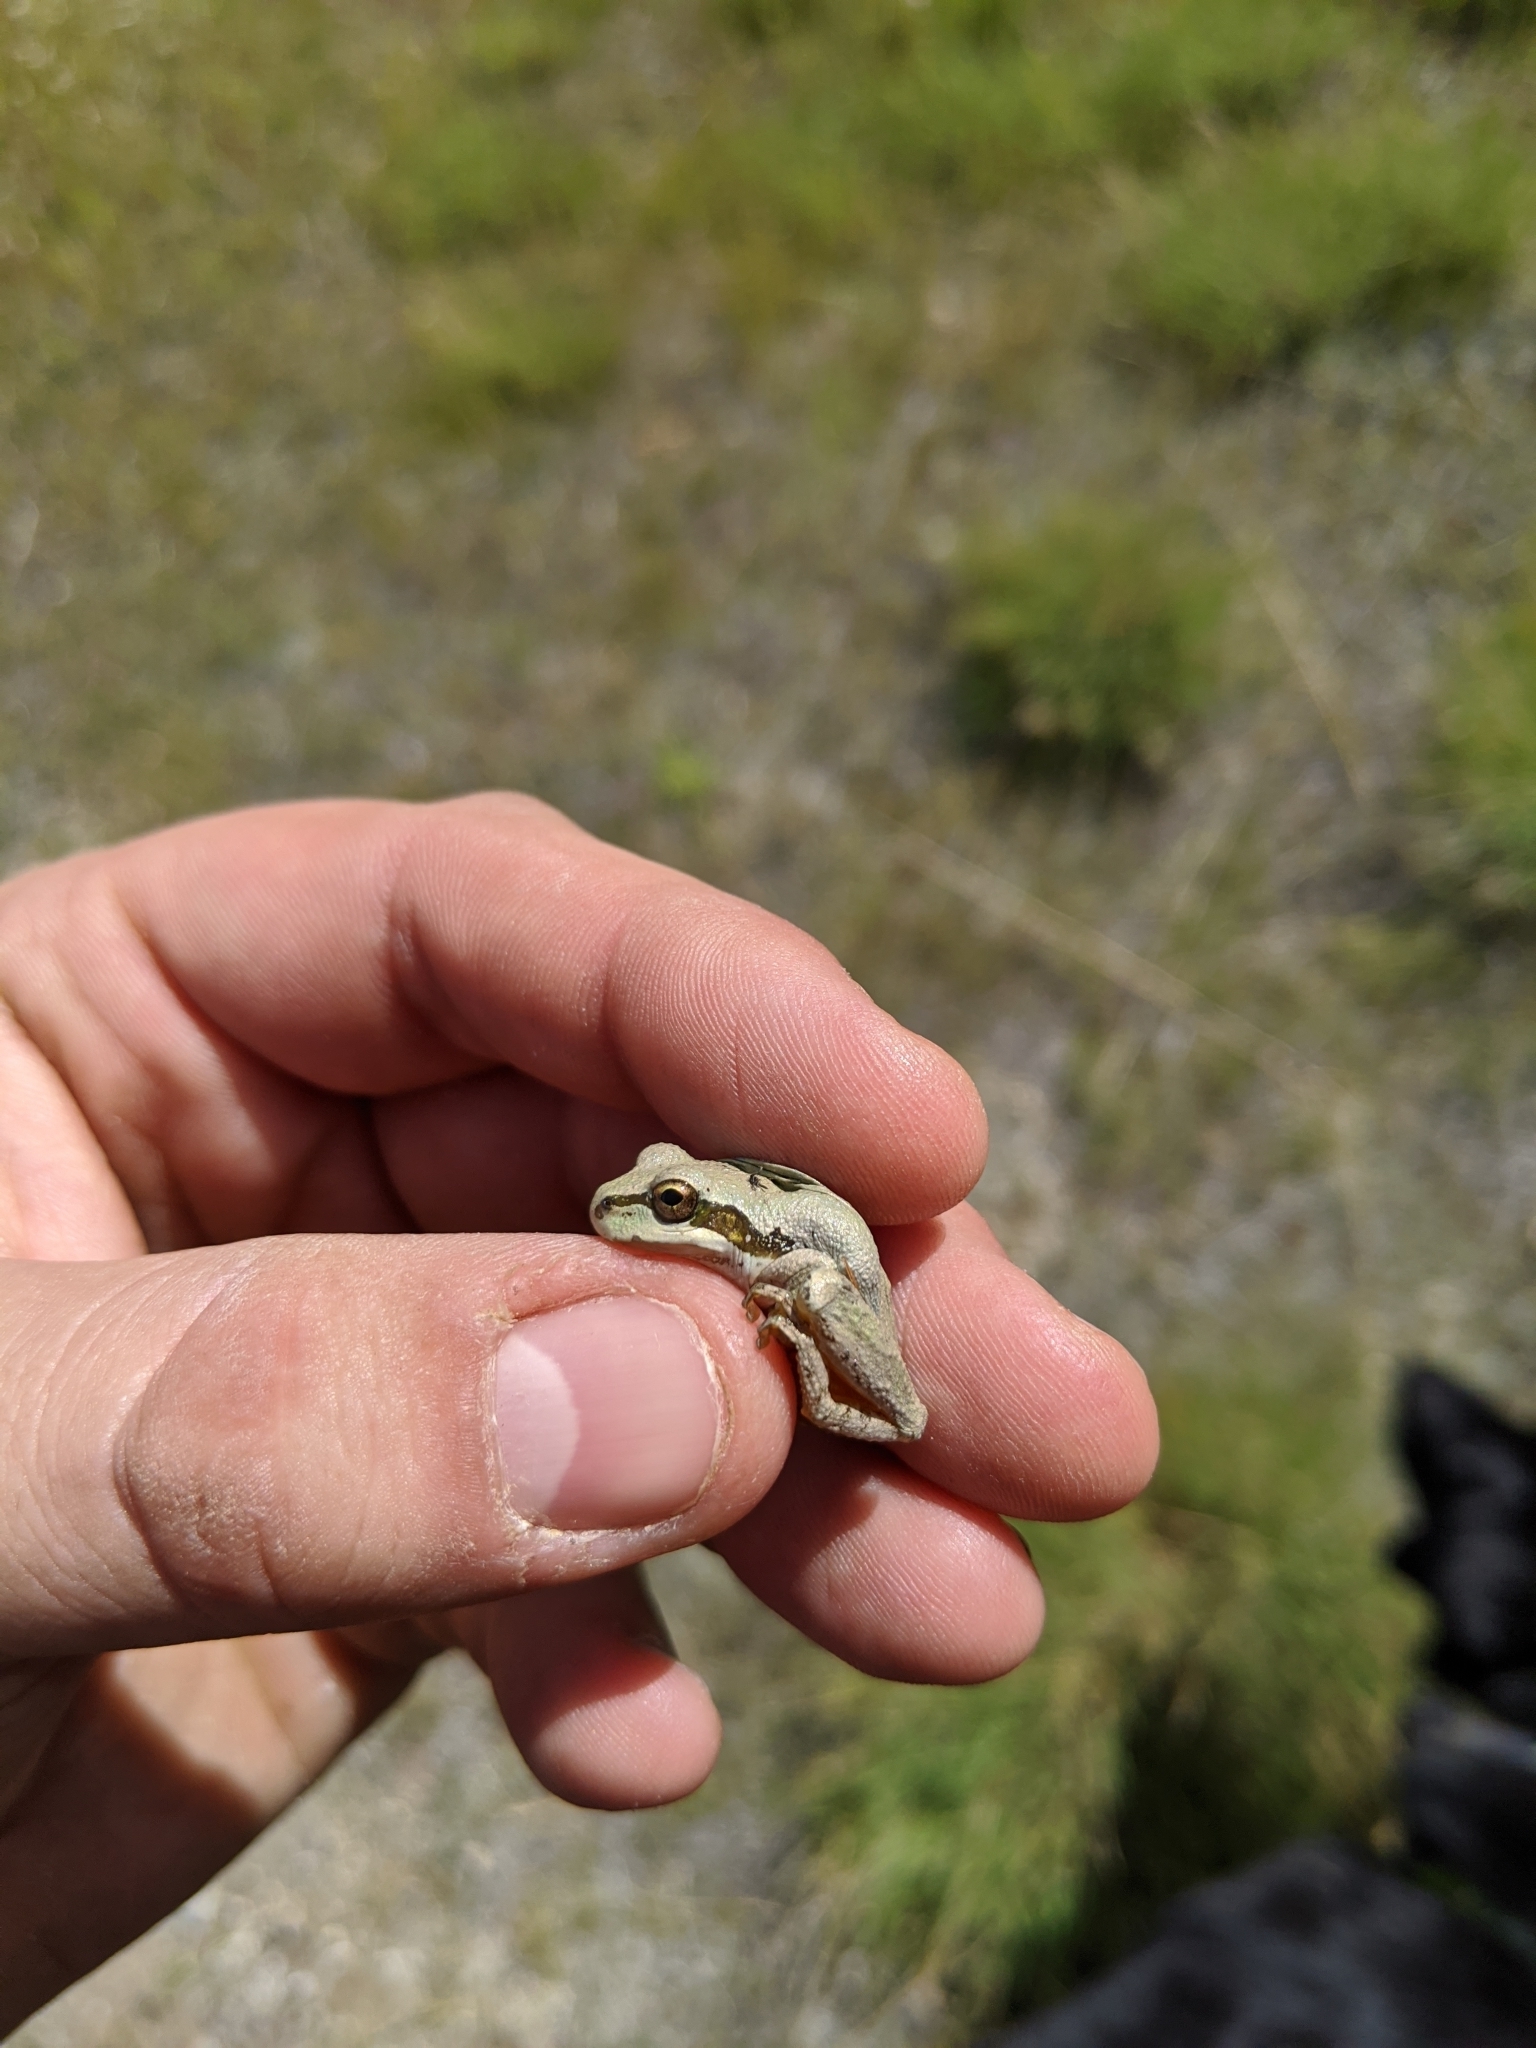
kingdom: Animalia
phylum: Chordata
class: Amphibia
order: Anura
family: Hylidae
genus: Pseudacris
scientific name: Pseudacris regilla
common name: Pacific chorus frog
